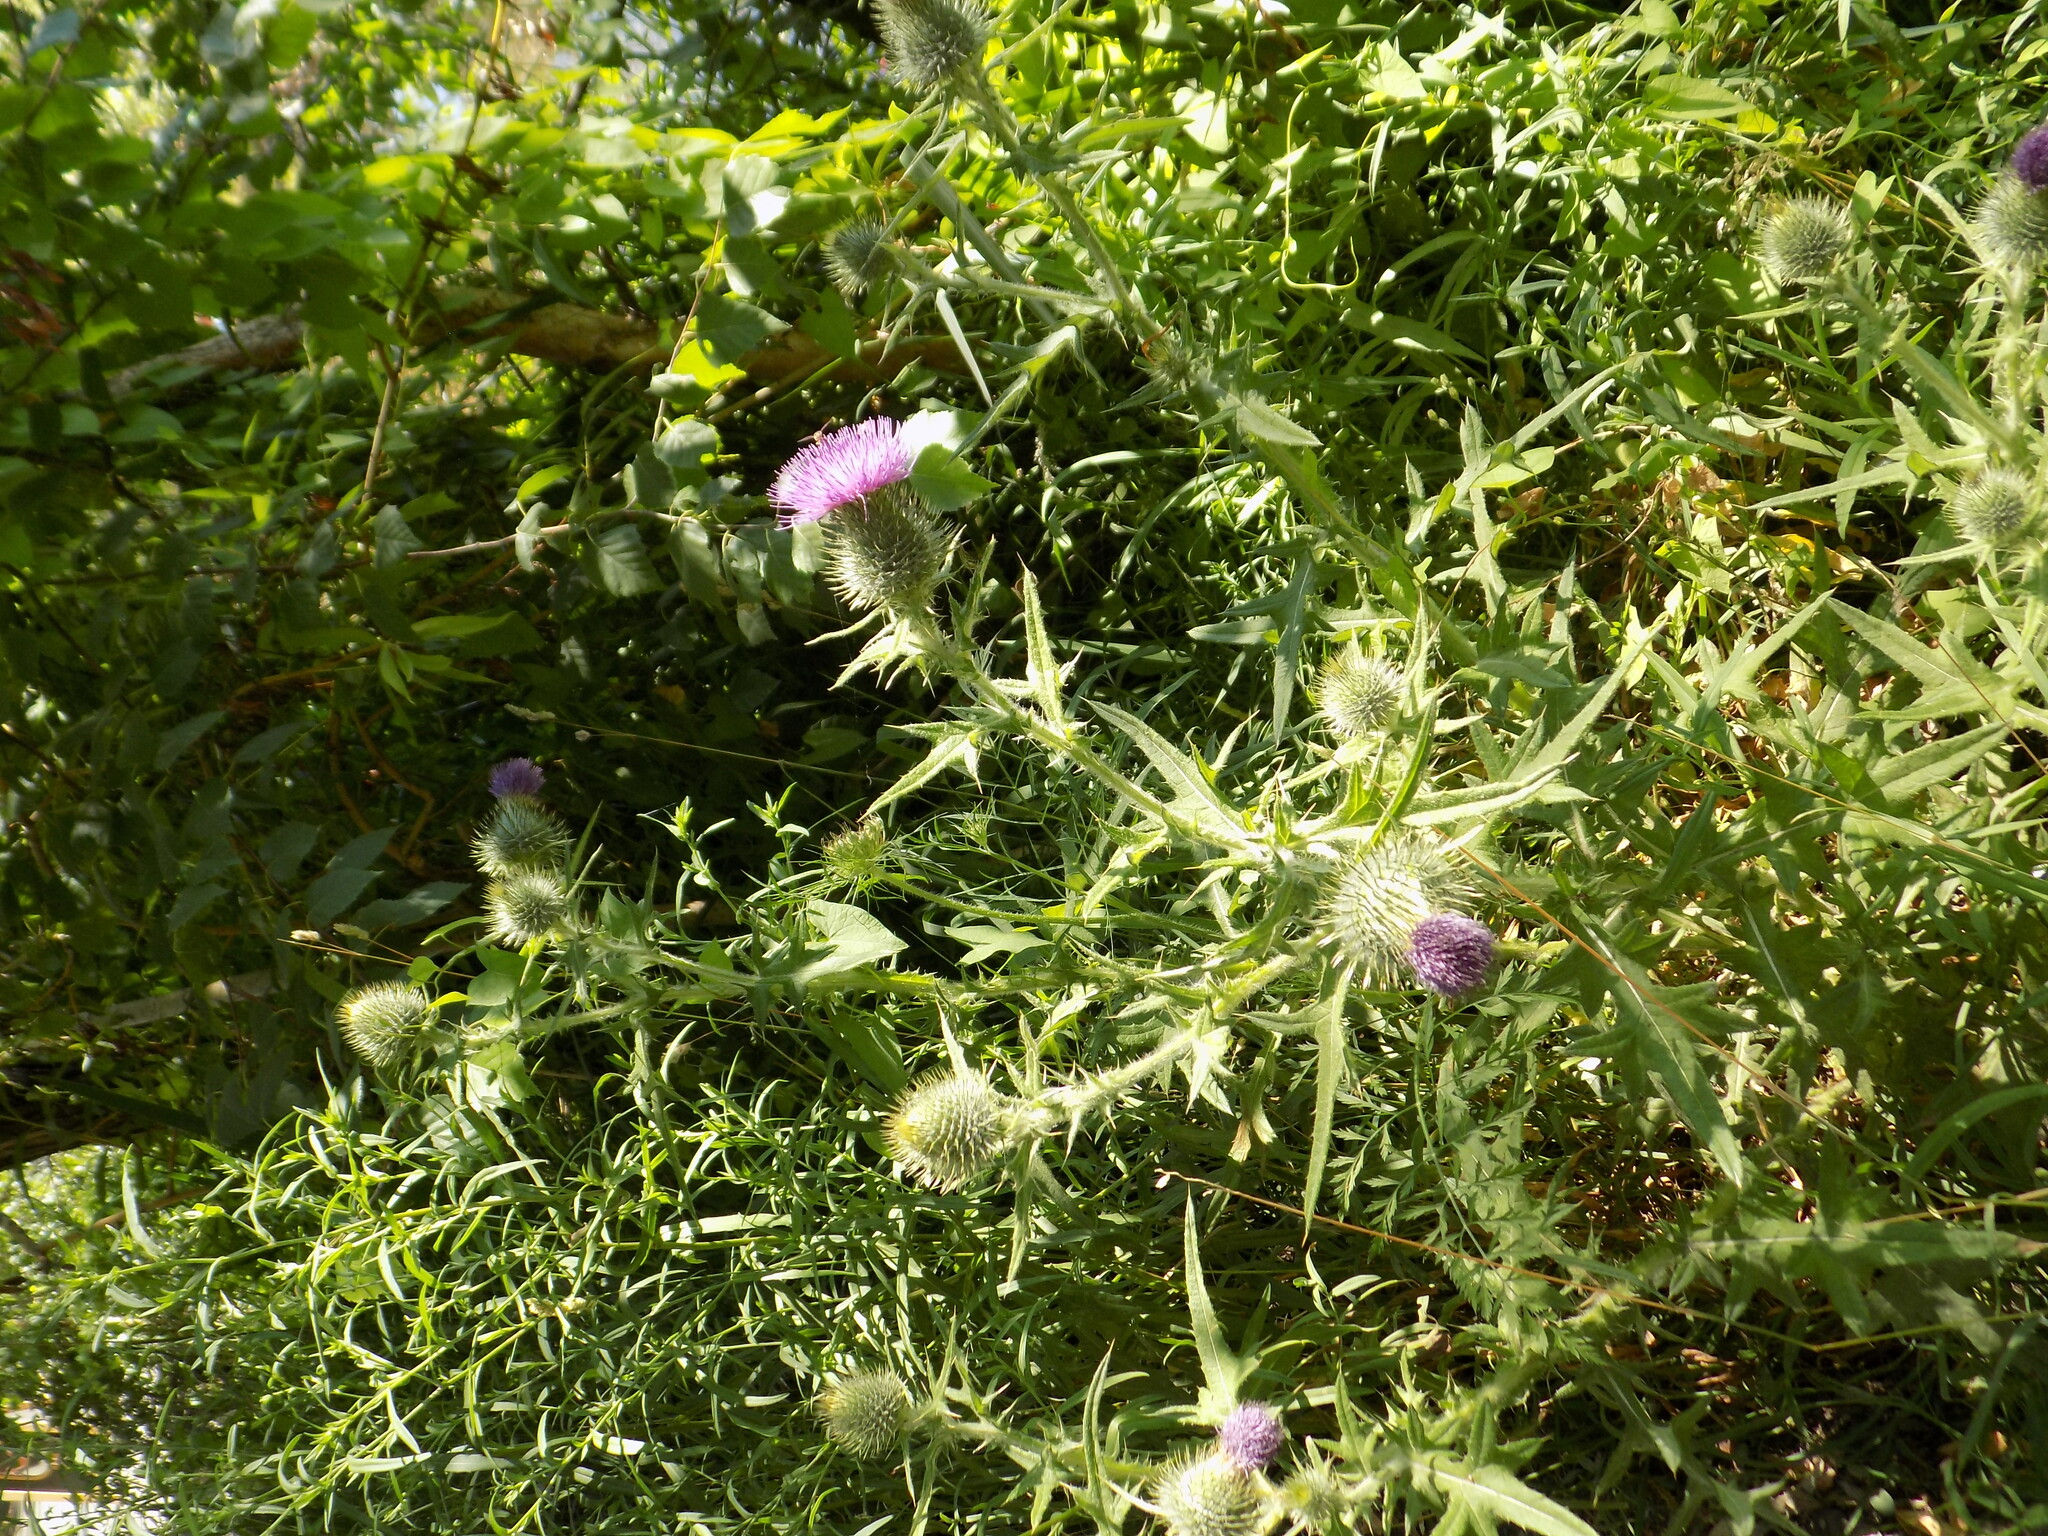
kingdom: Plantae
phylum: Tracheophyta
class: Magnoliopsida
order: Asterales
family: Asteraceae
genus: Cirsium
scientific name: Cirsium vulgare
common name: Bull thistle
